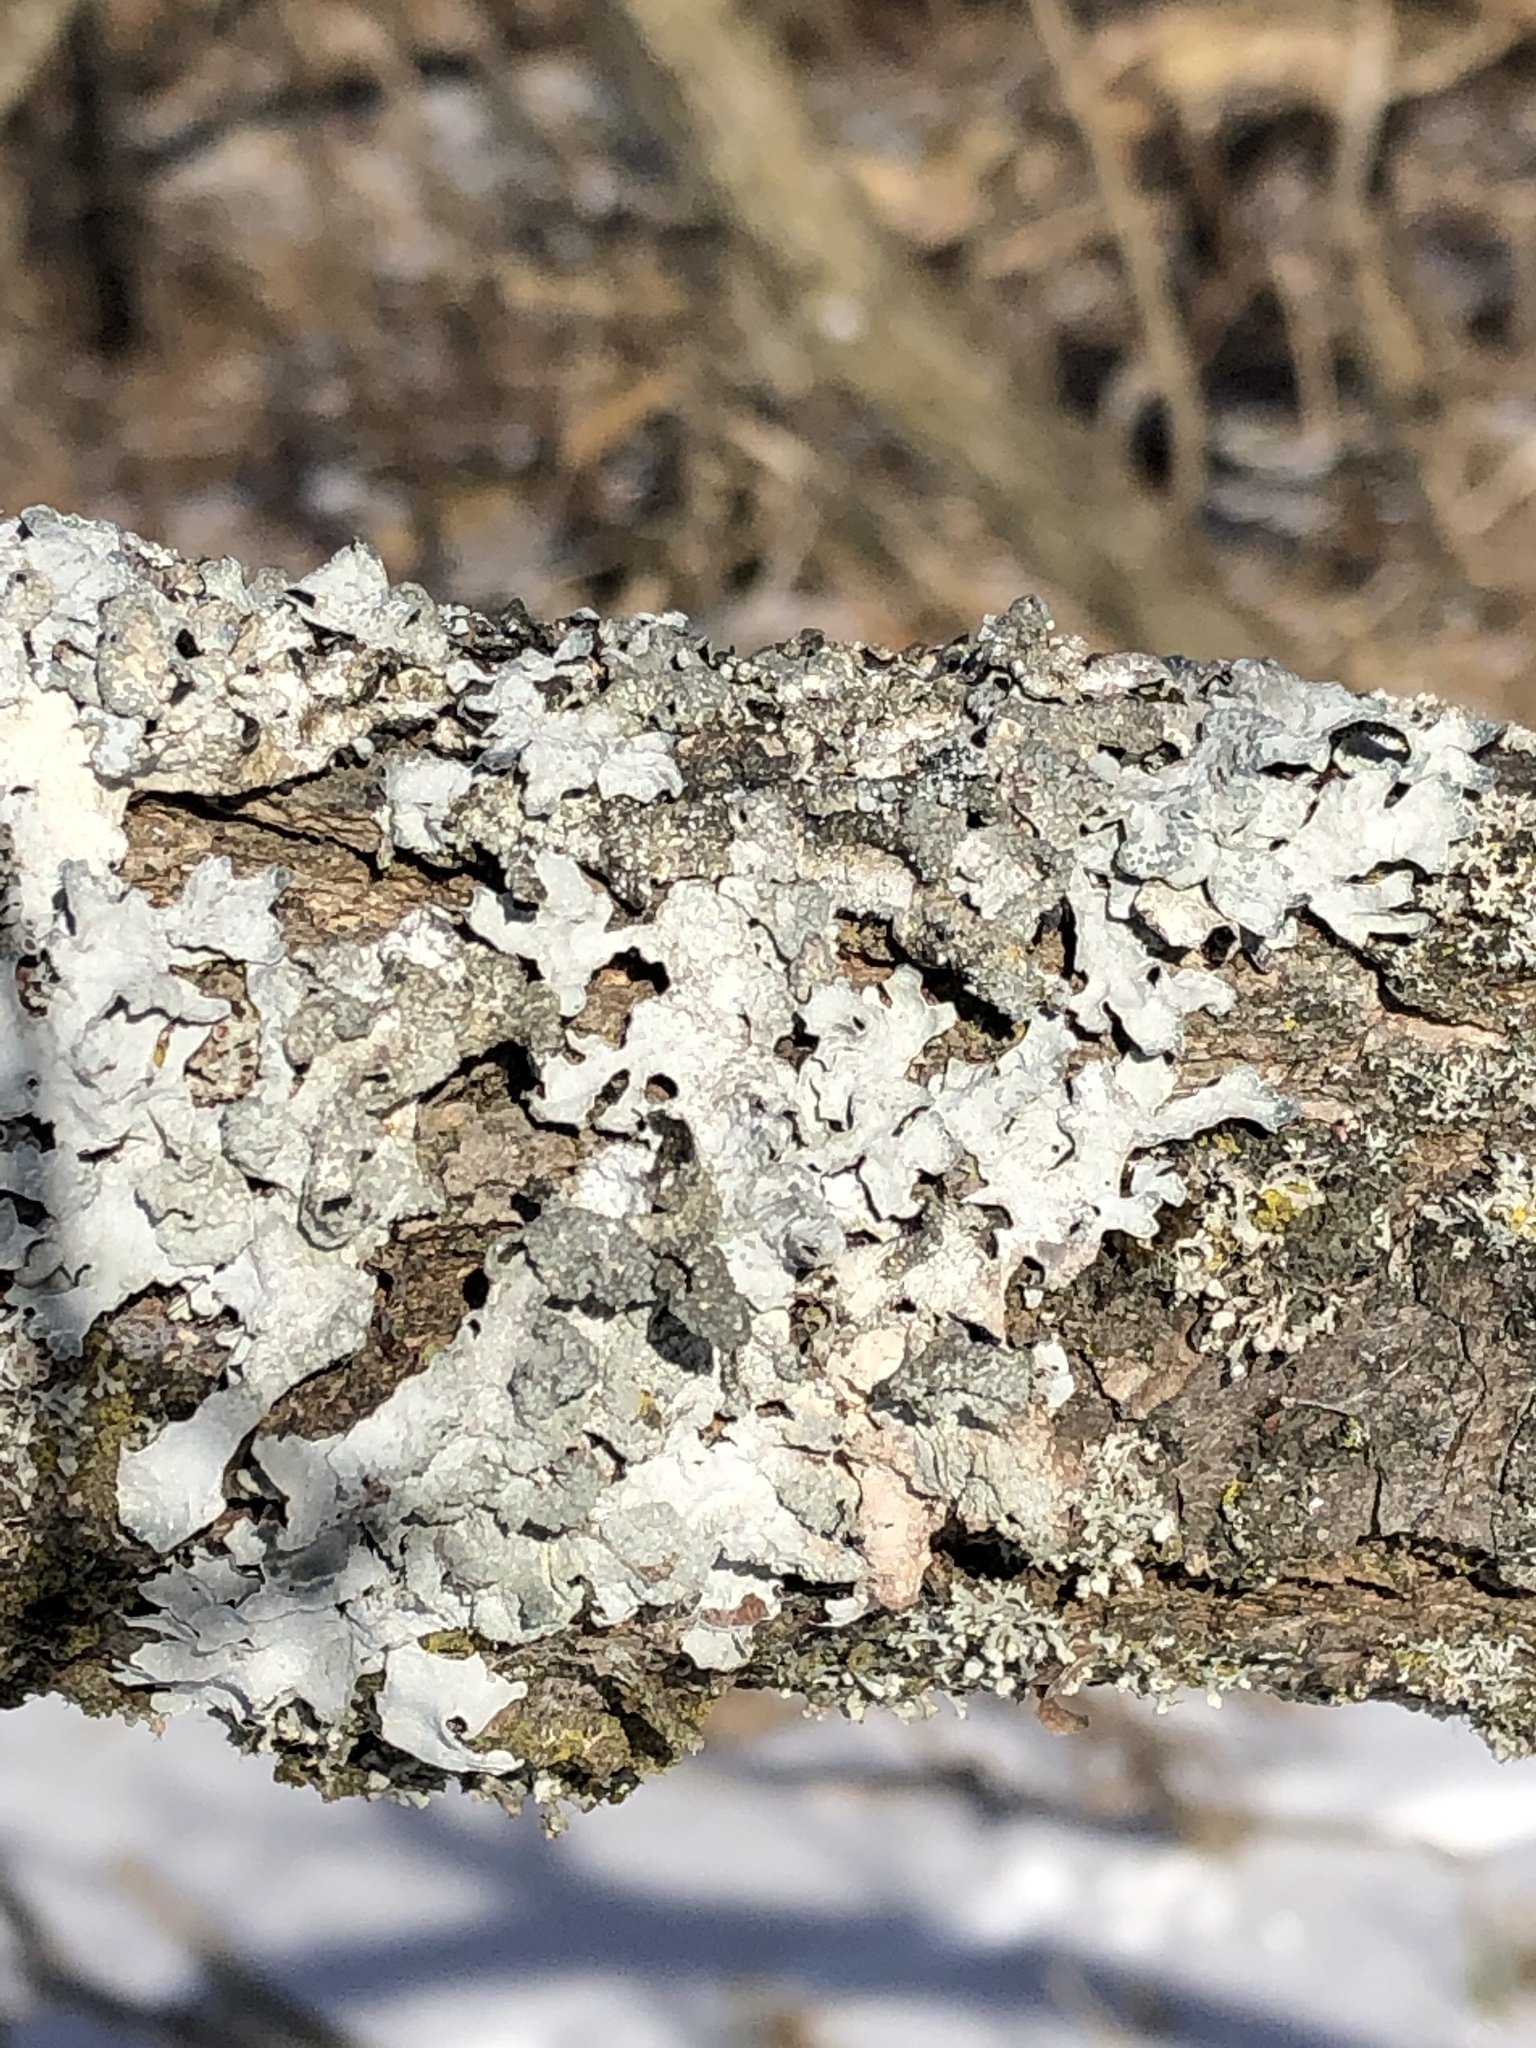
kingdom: Fungi
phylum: Ascomycota
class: Lecanoromycetes
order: Lecanorales
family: Parmeliaceae
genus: Parmelia
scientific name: Parmelia sulcata
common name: Netted shield lichen
